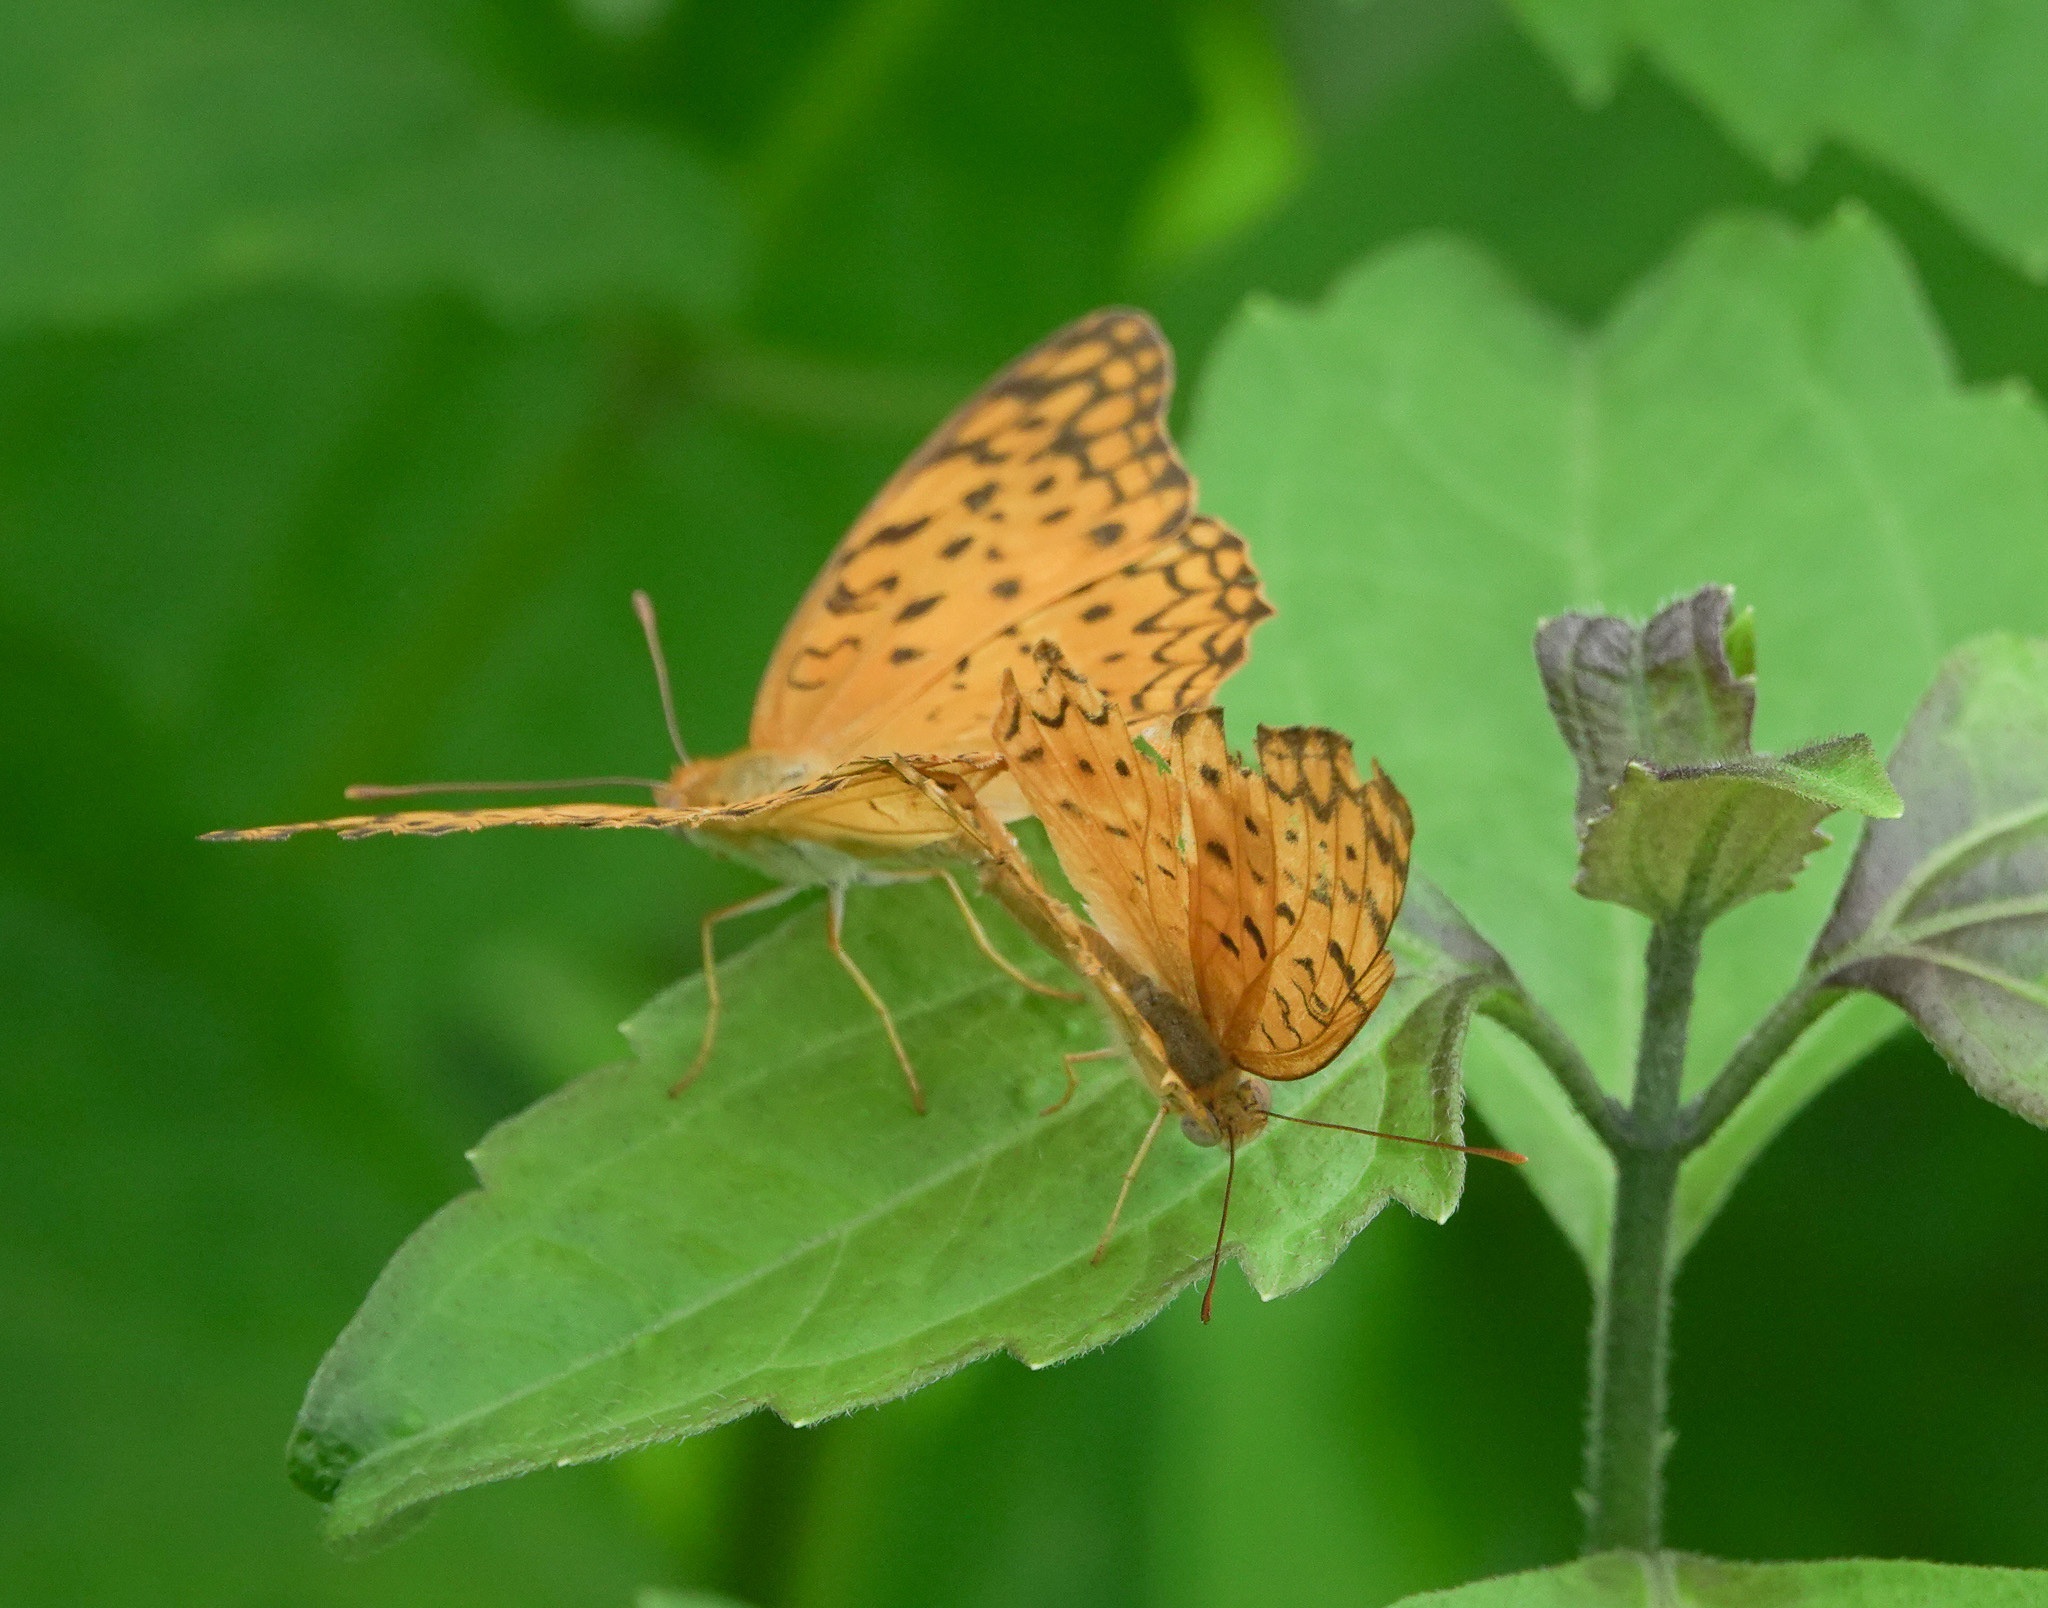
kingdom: Animalia
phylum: Arthropoda
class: Insecta
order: Lepidoptera
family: Nymphalidae
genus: Phalanta
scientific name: Phalanta phalantha
